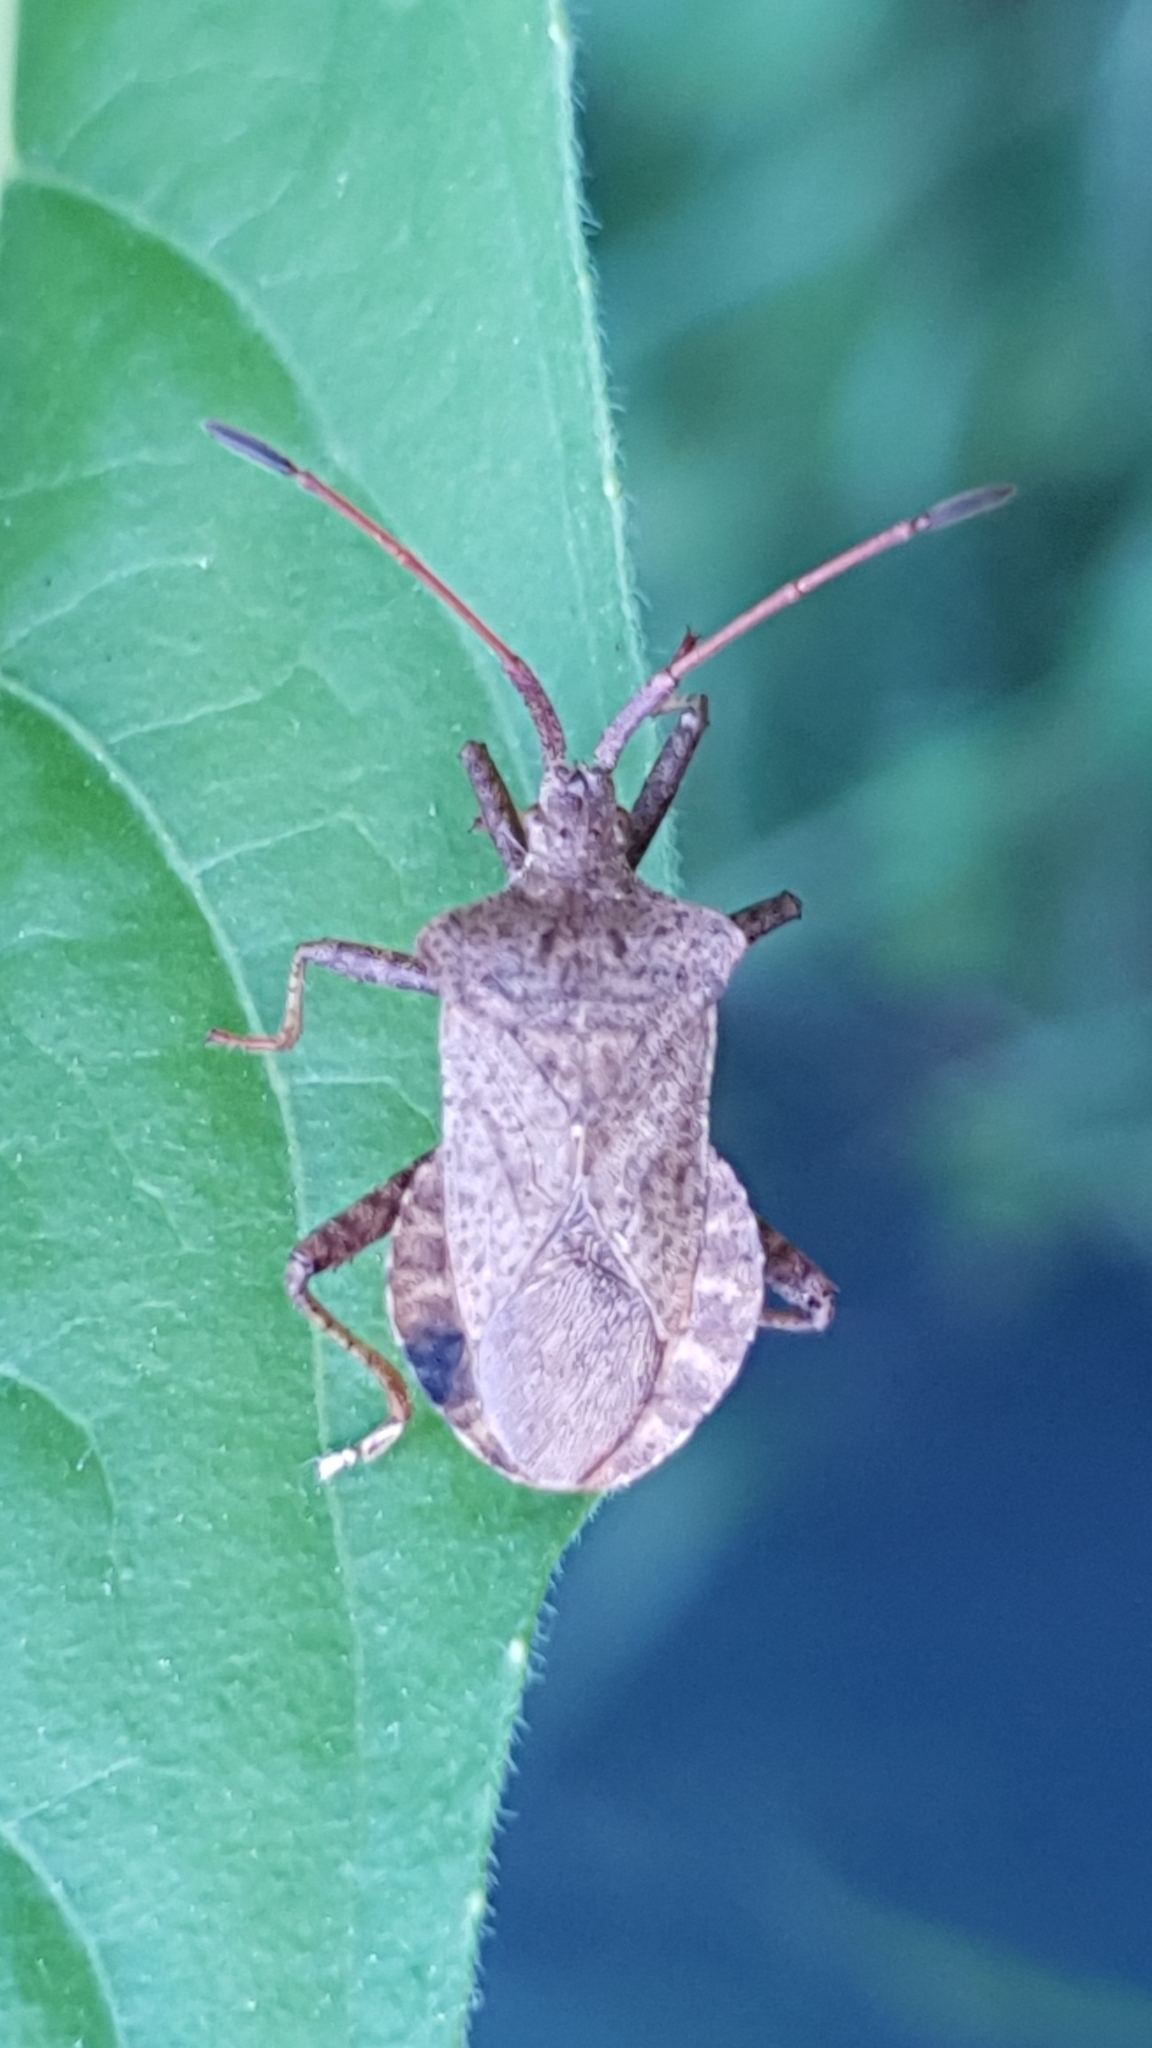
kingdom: Animalia
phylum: Arthropoda
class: Insecta
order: Hemiptera
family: Coreidae
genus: Coreus
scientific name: Coreus marginatus
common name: Dock bug
